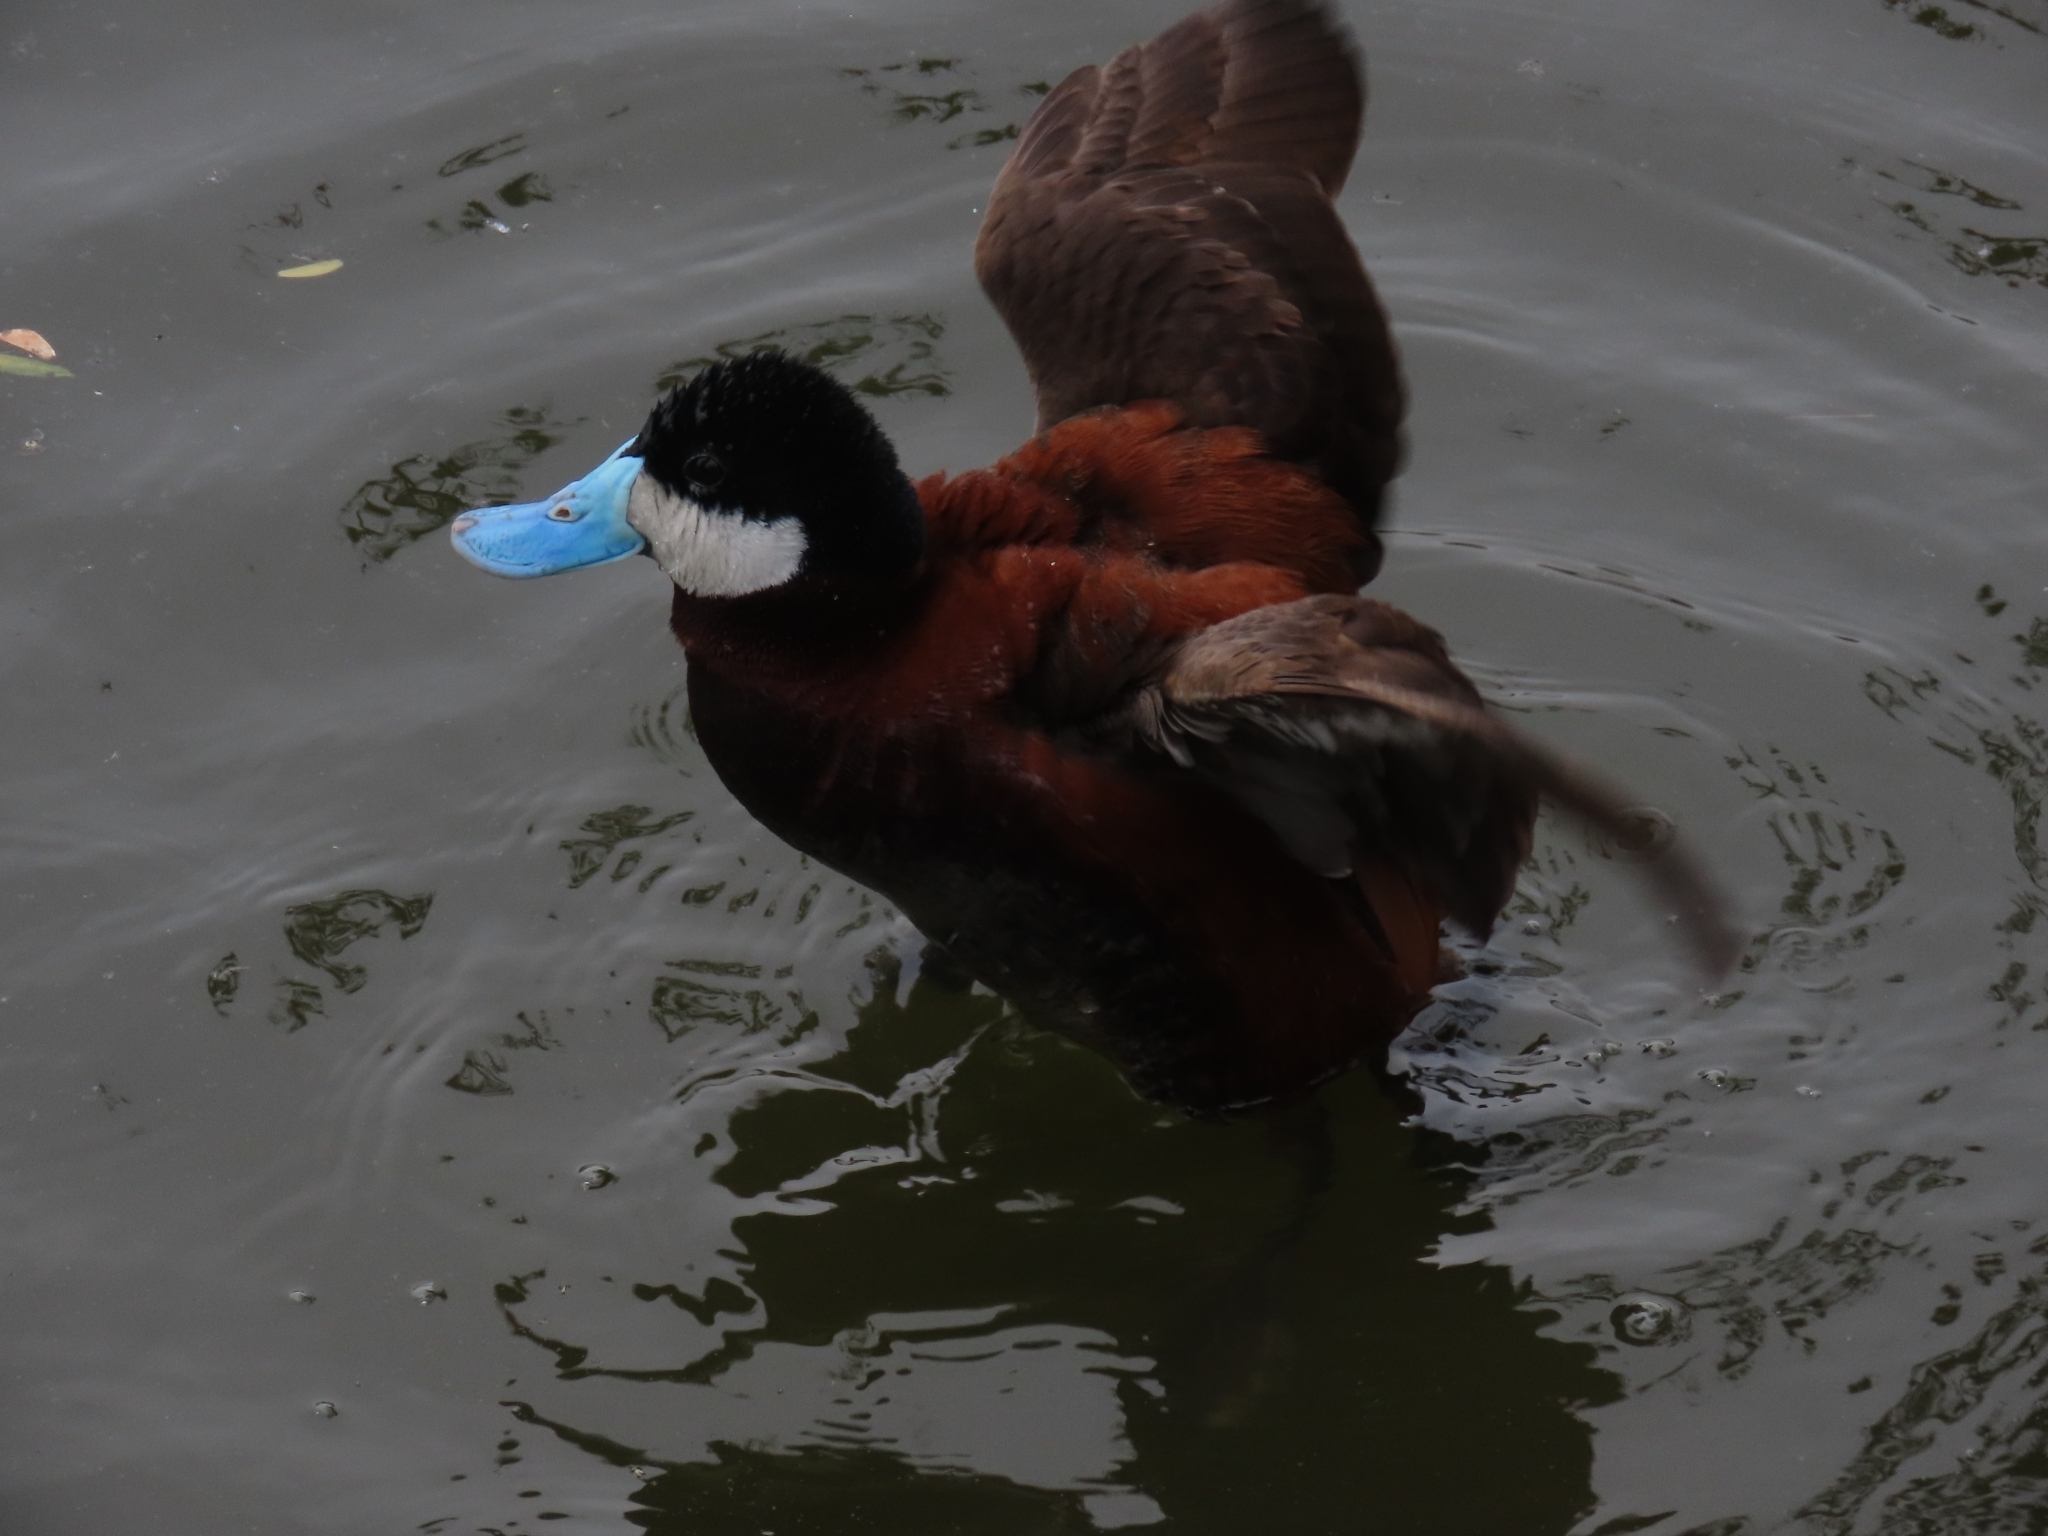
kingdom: Animalia
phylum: Chordata
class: Aves
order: Anseriformes
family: Anatidae
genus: Oxyura
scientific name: Oxyura jamaicensis
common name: Ruddy duck
